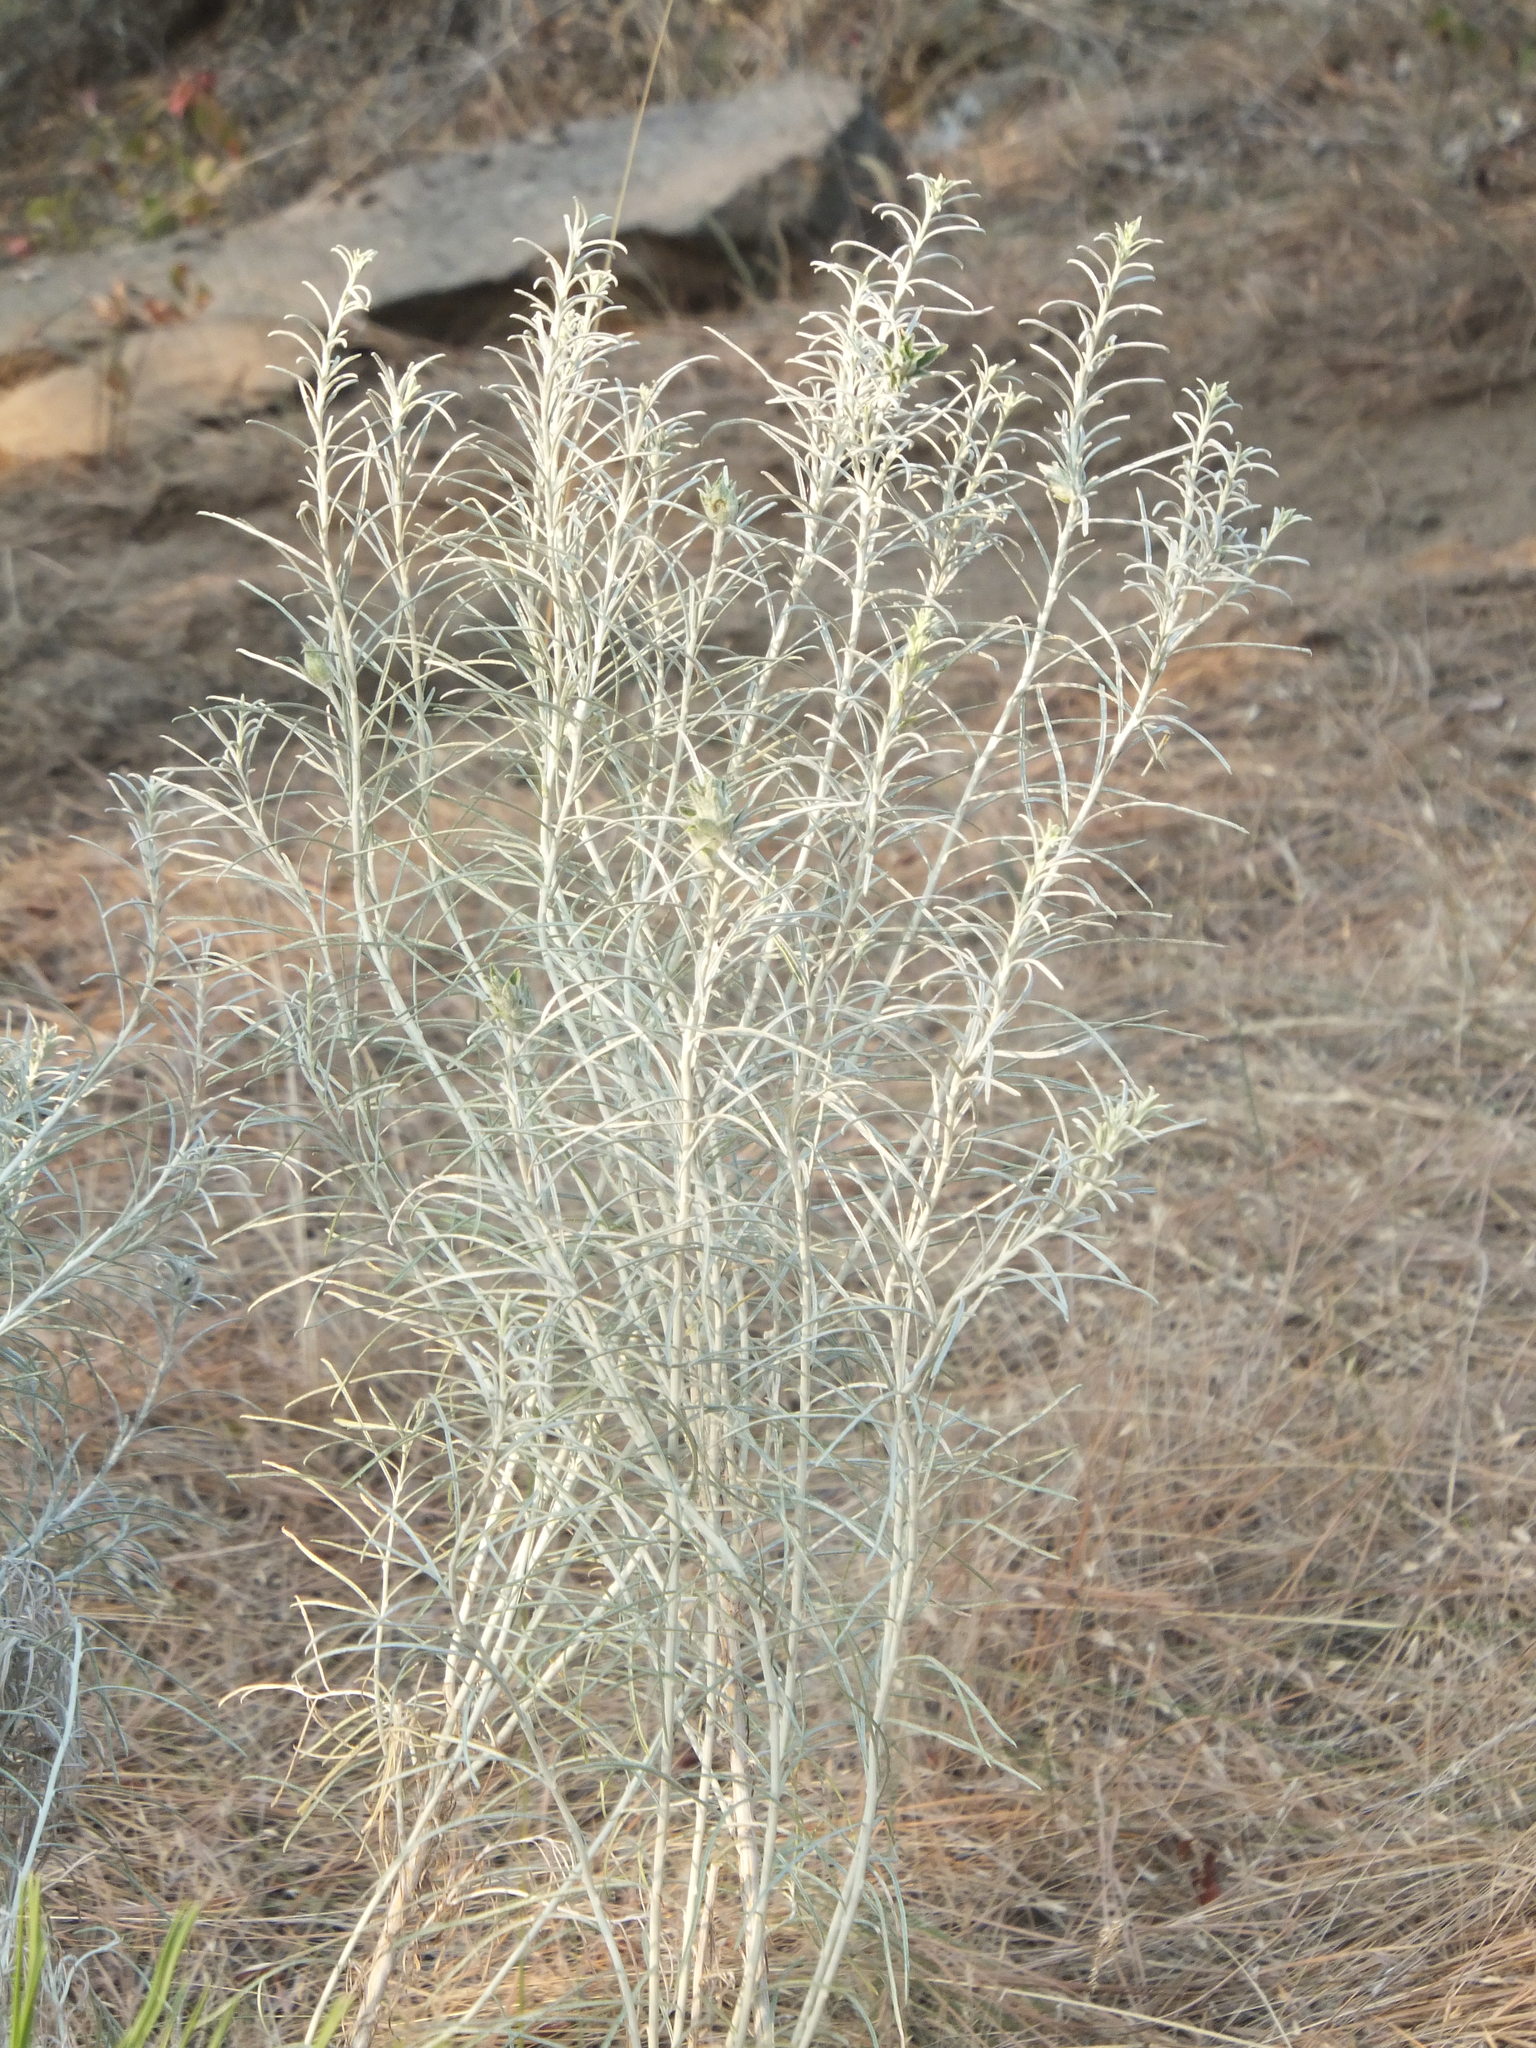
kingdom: Plantae
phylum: Tracheophyta
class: Magnoliopsida
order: Asterales
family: Asteraceae
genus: Ericameria
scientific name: Ericameria nauseosa
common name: Rubber rabbitbrush
